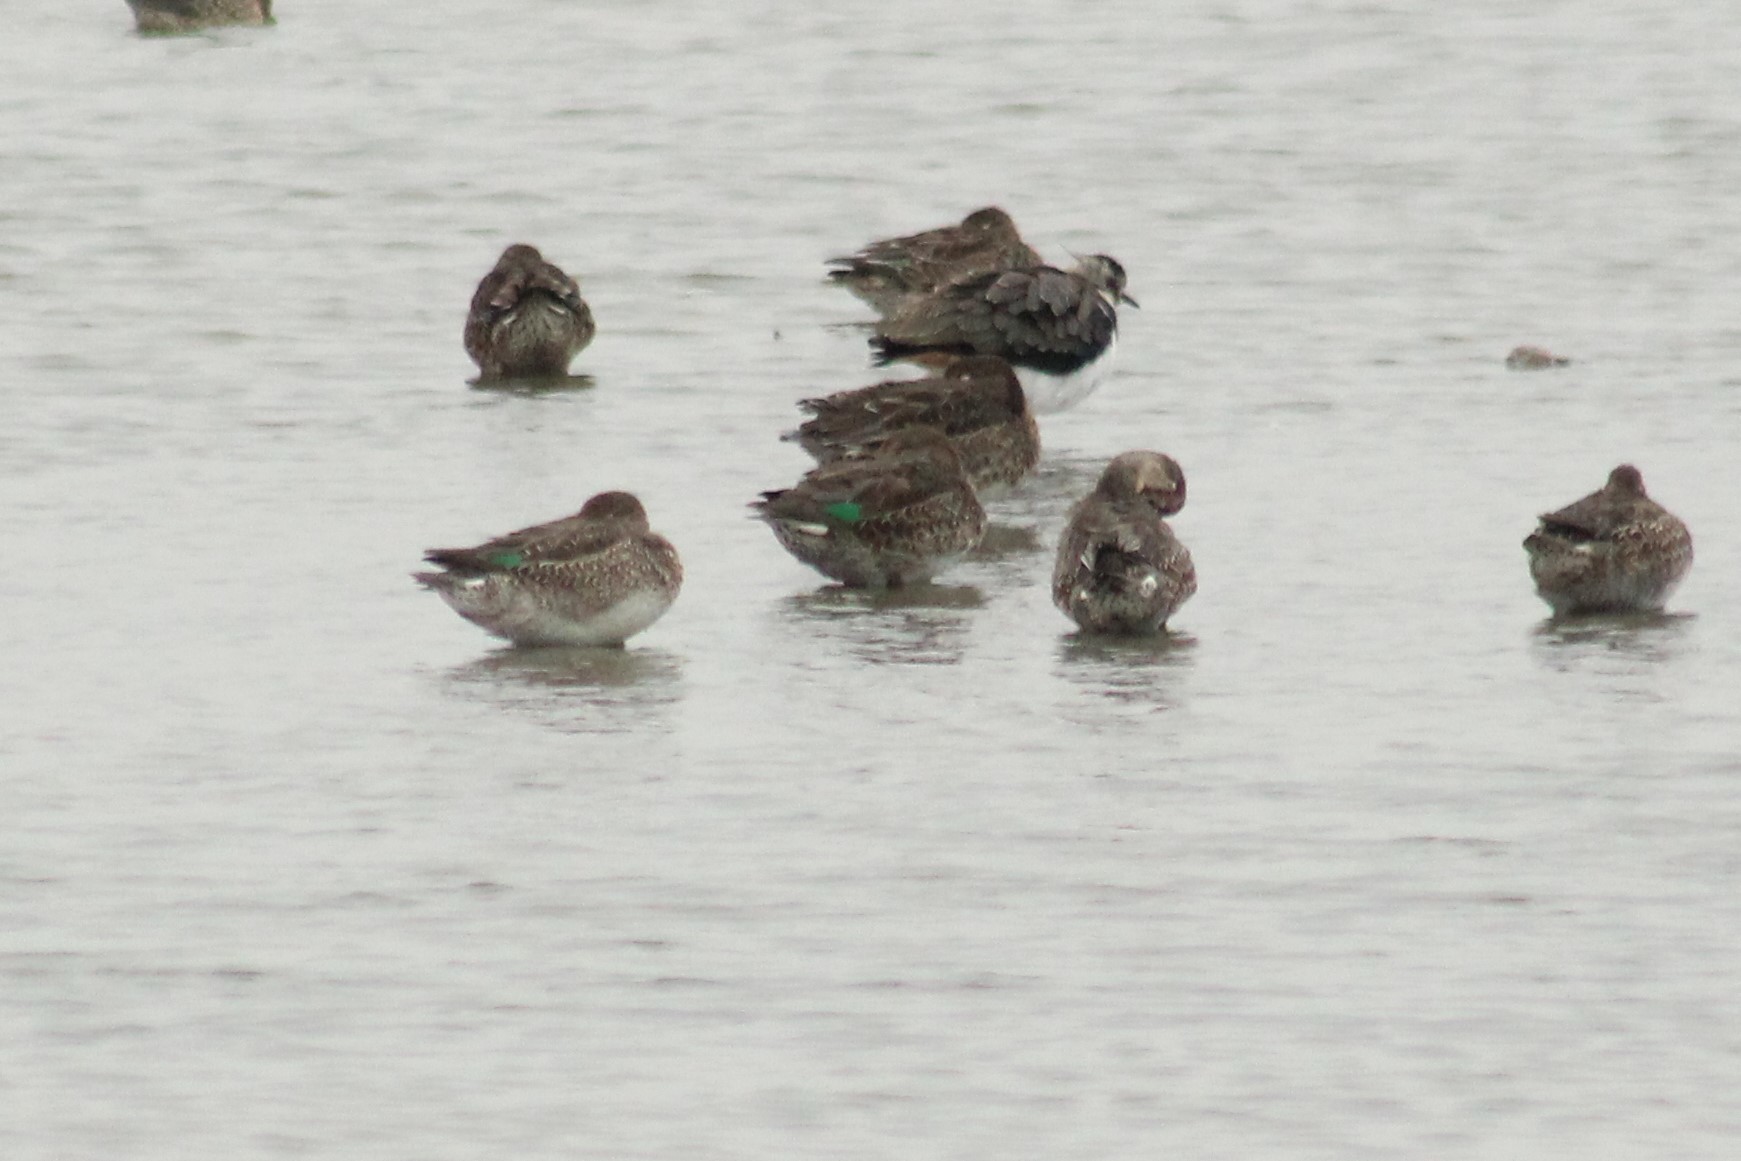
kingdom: Animalia
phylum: Chordata
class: Aves
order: Anseriformes
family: Anatidae
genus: Anas
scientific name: Anas crecca
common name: Eurasian teal
